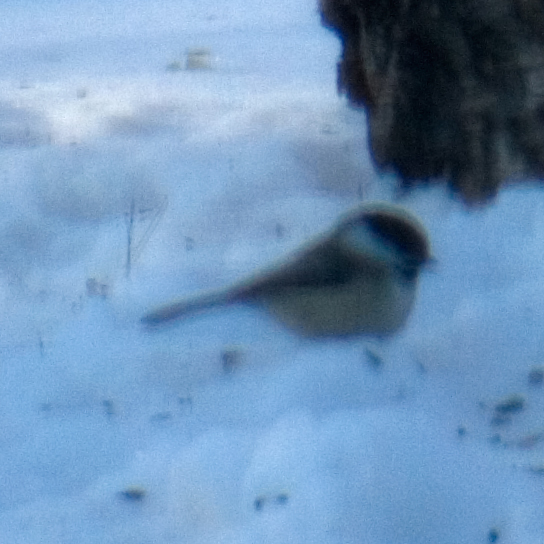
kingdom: Animalia
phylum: Chordata
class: Aves
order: Passeriformes
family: Paridae
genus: Poecile
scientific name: Poecile atricapillus
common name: Black-capped chickadee
